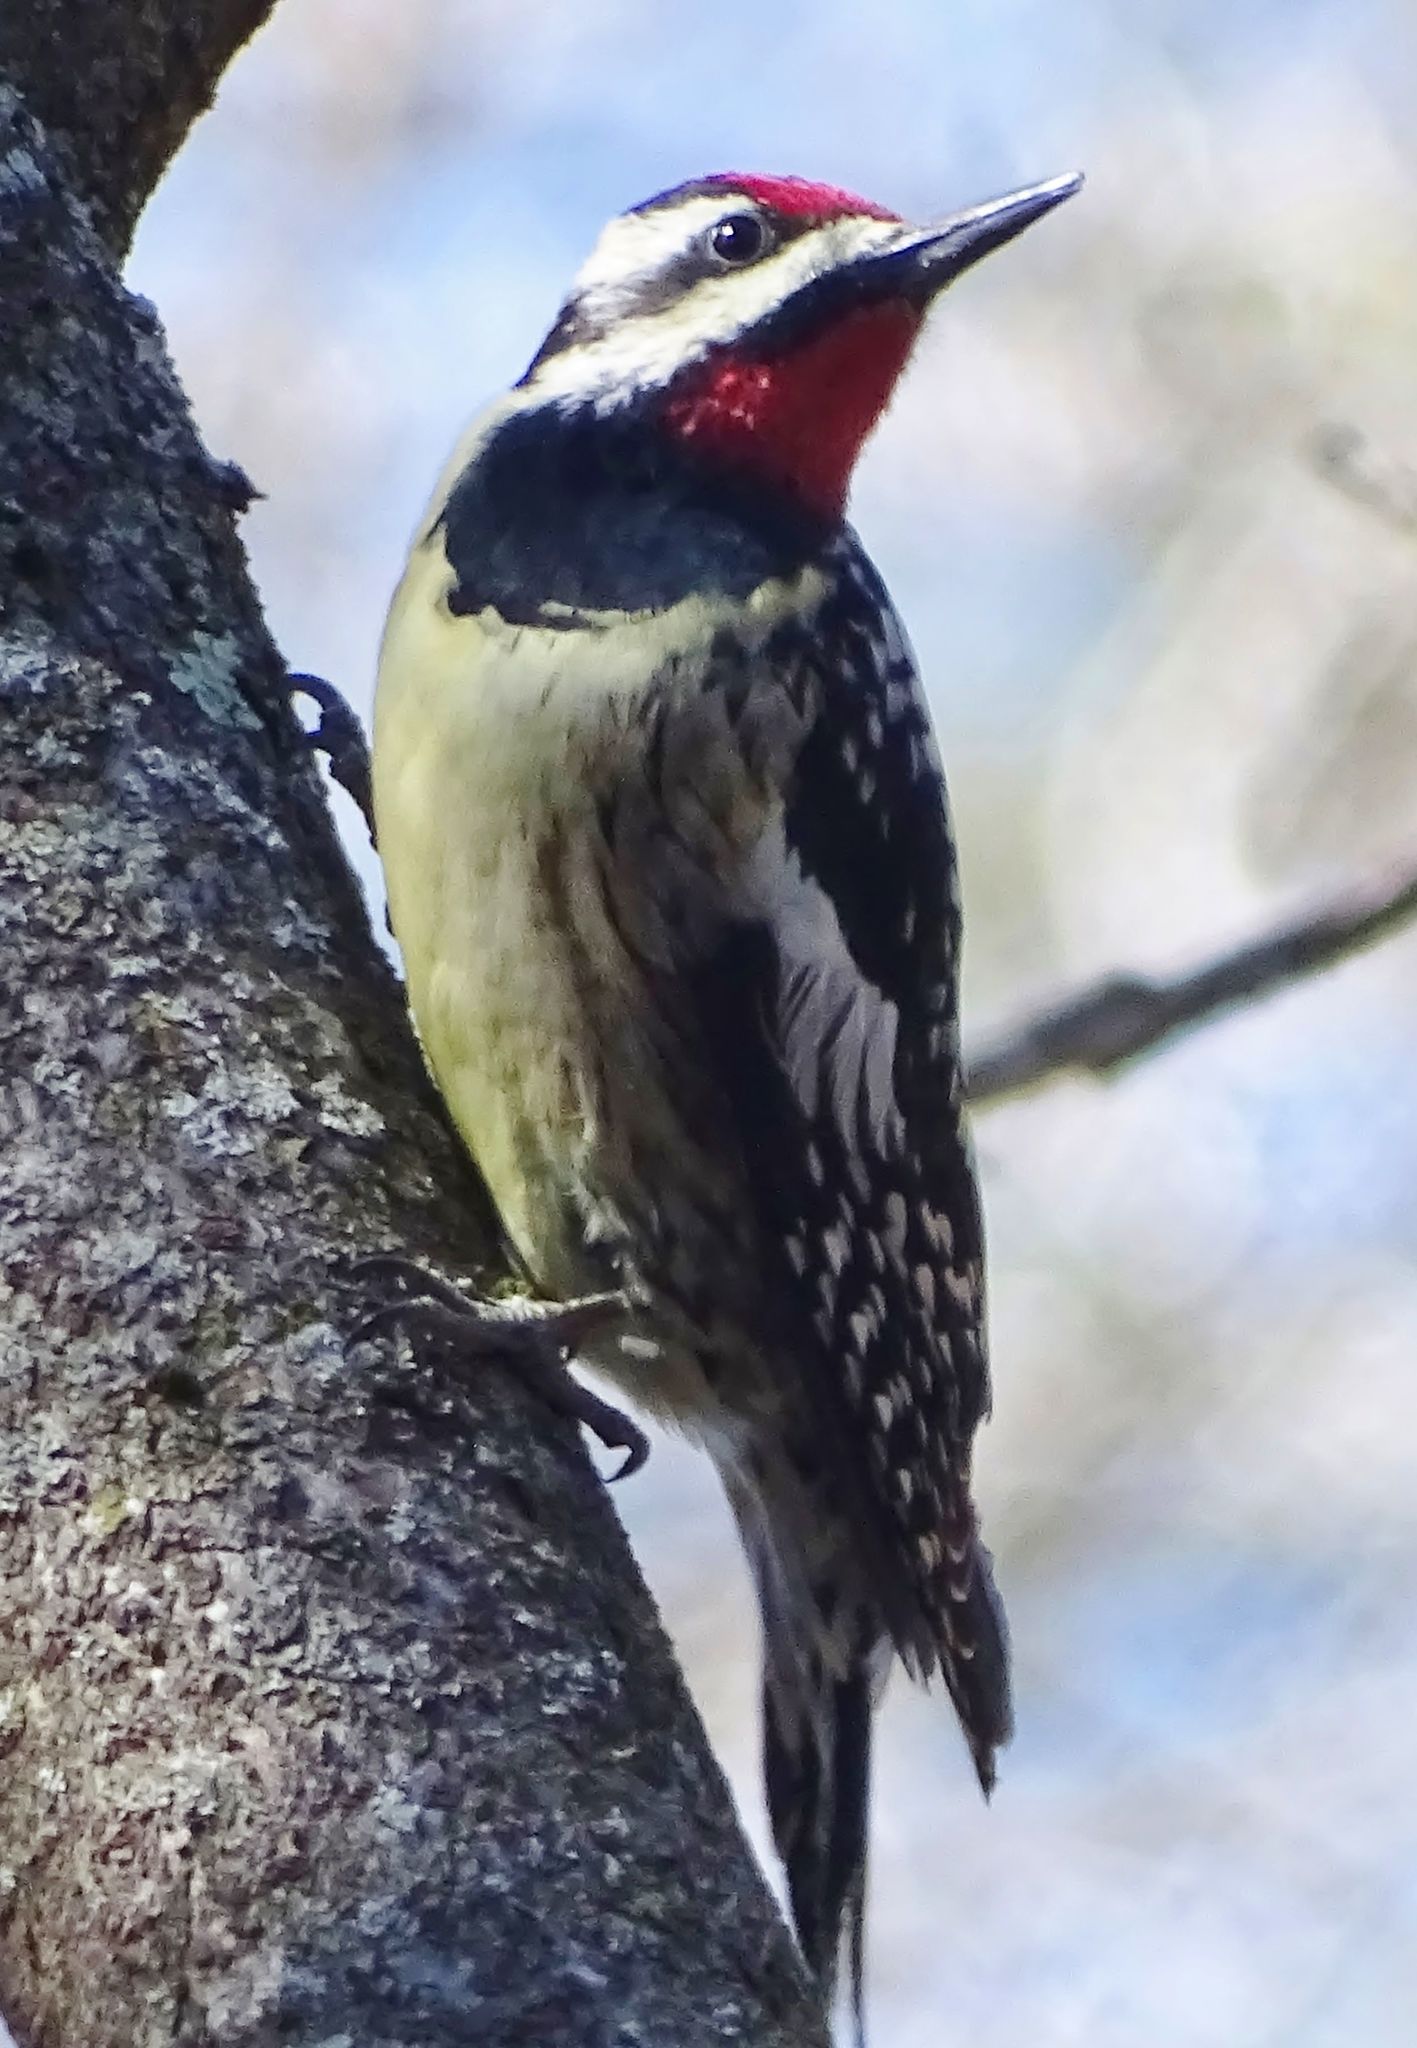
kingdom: Animalia
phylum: Chordata
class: Aves
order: Piciformes
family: Picidae
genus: Sphyrapicus
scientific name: Sphyrapicus varius
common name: Yellow-bellied sapsucker
